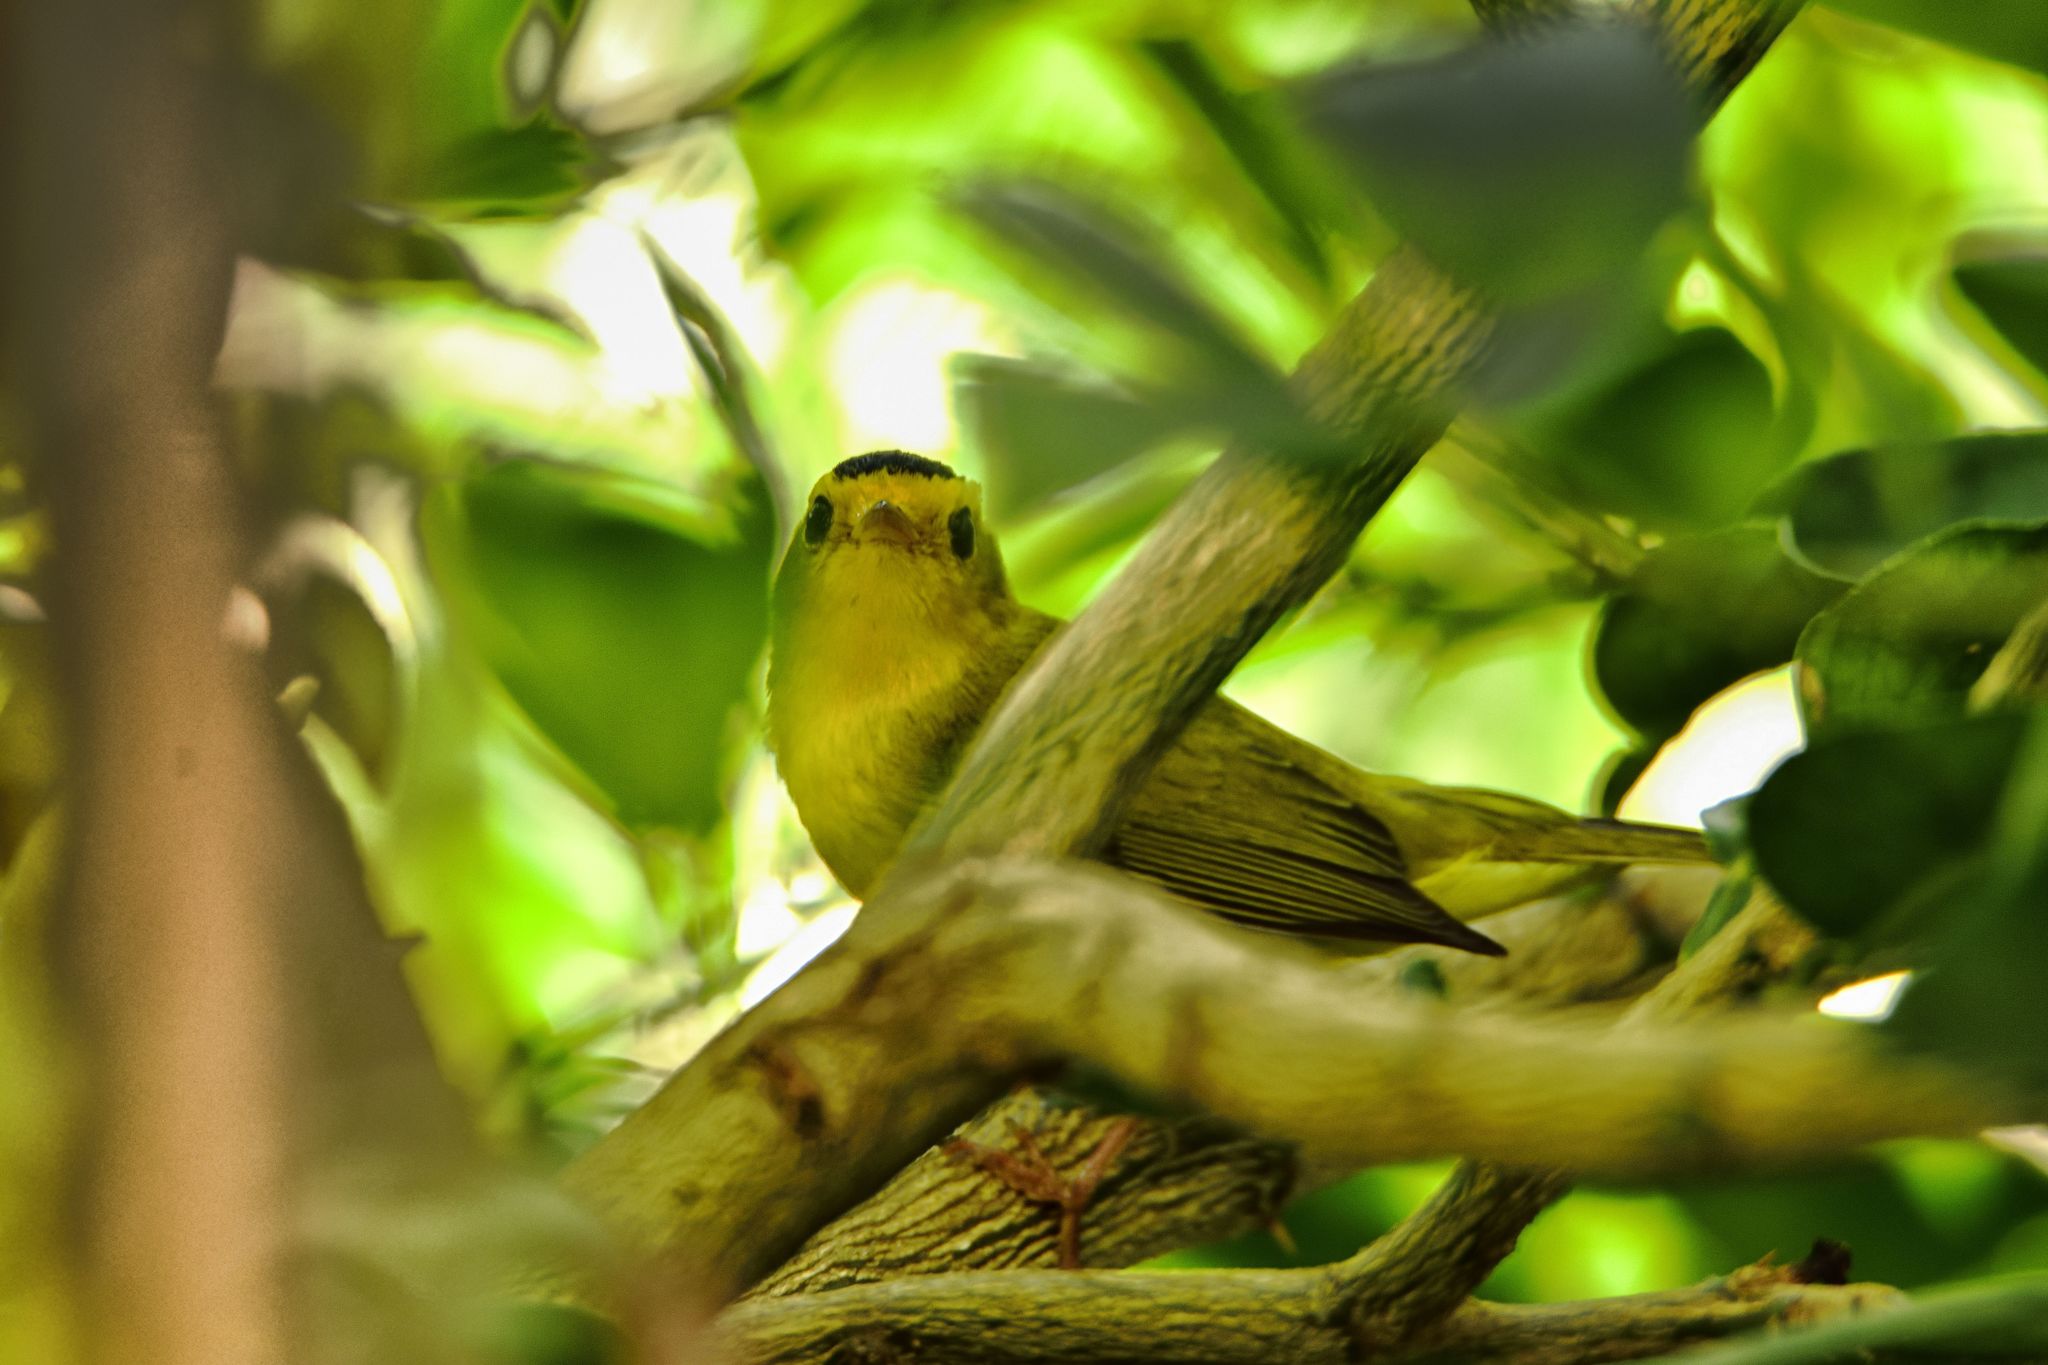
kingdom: Animalia
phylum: Chordata
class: Aves
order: Passeriformes
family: Parulidae
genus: Cardellina
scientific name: Cardellina pusilla
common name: Wilson's warbler
